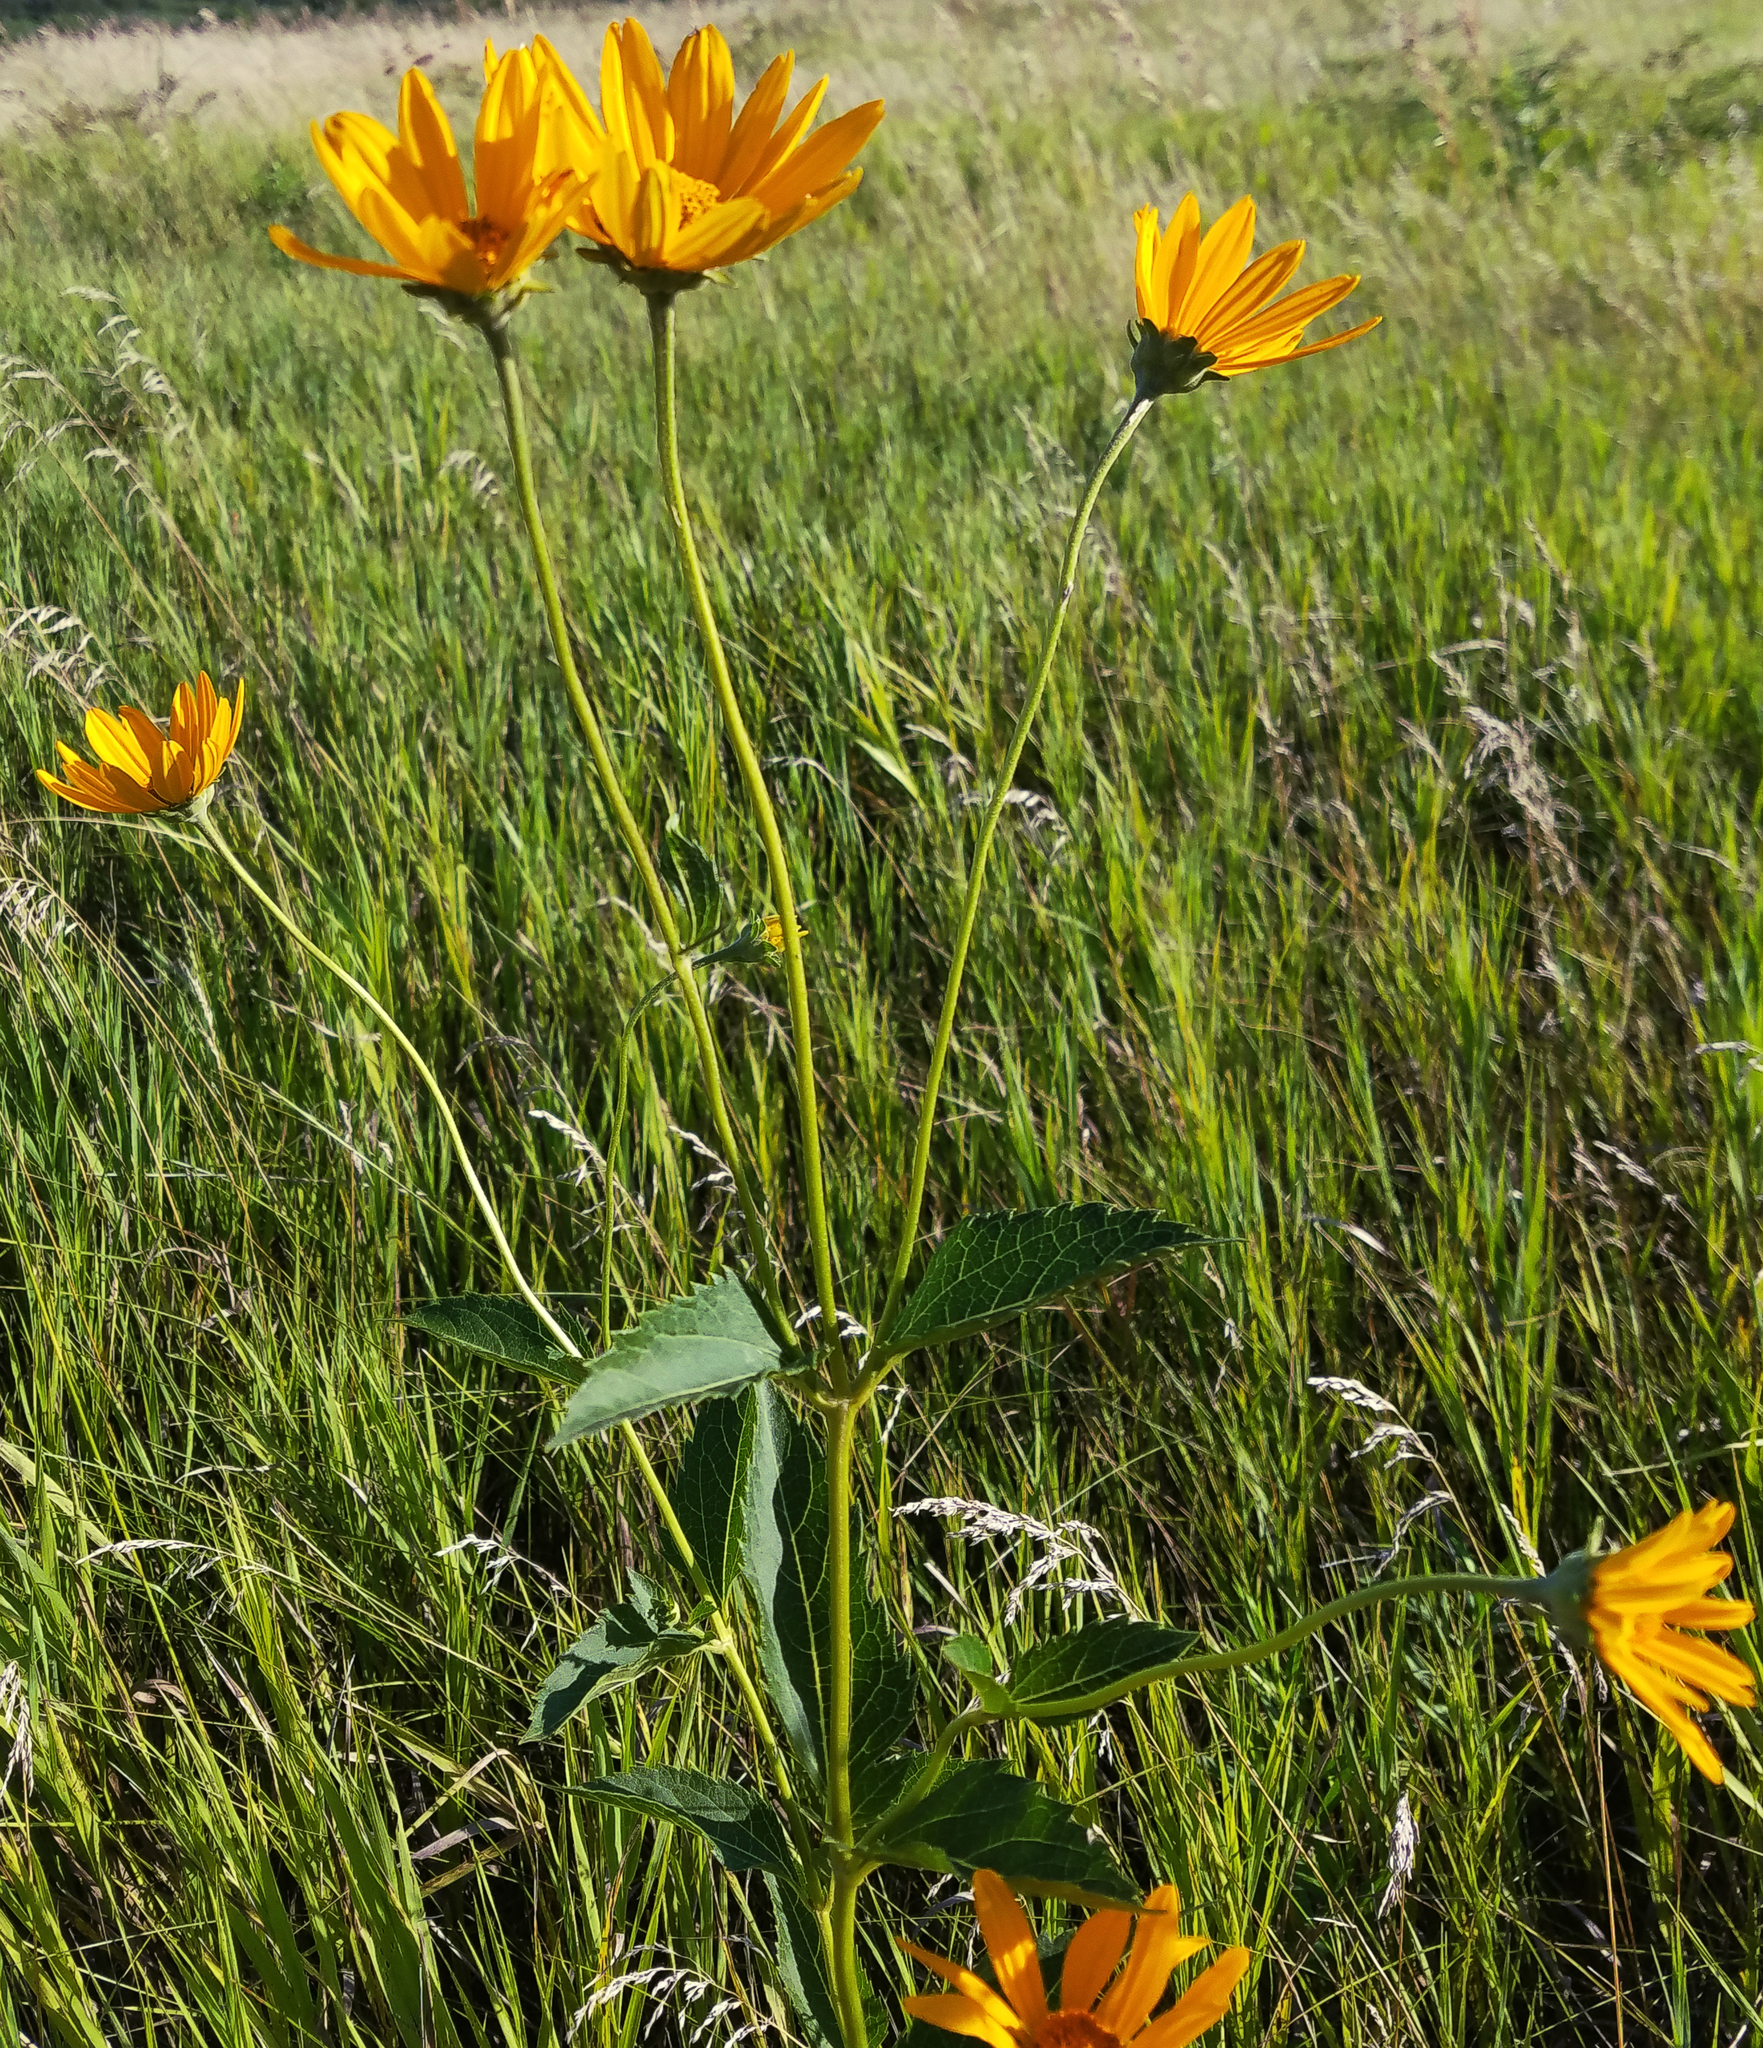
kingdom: Plantae
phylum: Tracheophyta
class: Magnoliopsida
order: Asterales
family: Asteraceae
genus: Heliopsis
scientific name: Heliopsis helianthoides
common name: False sunflower
